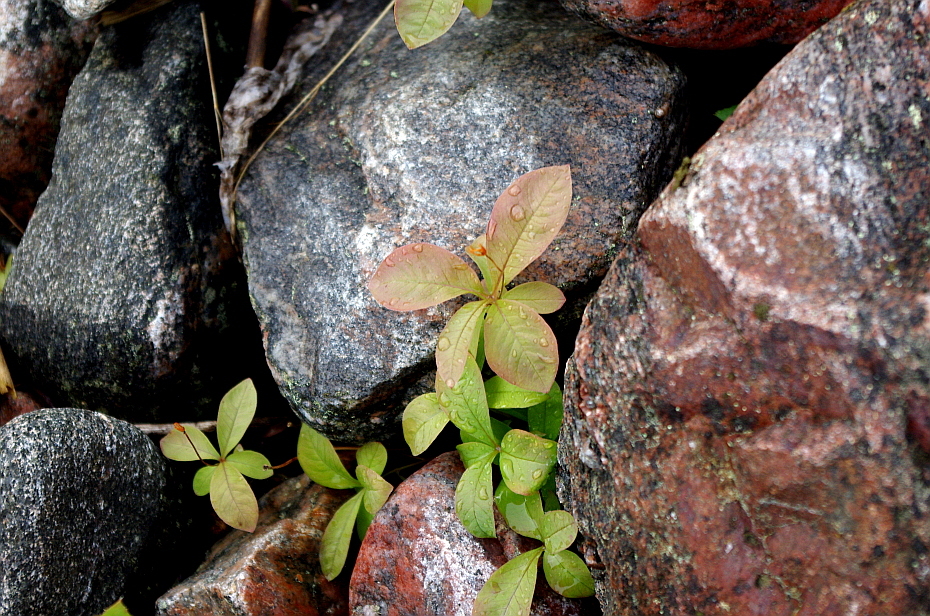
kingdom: Plantae
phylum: Tracheophyta
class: Magnoliopsida
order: Ericales
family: Primulaceae
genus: Lysimachia
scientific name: Lysimachia europaea
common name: Arctic starflower
